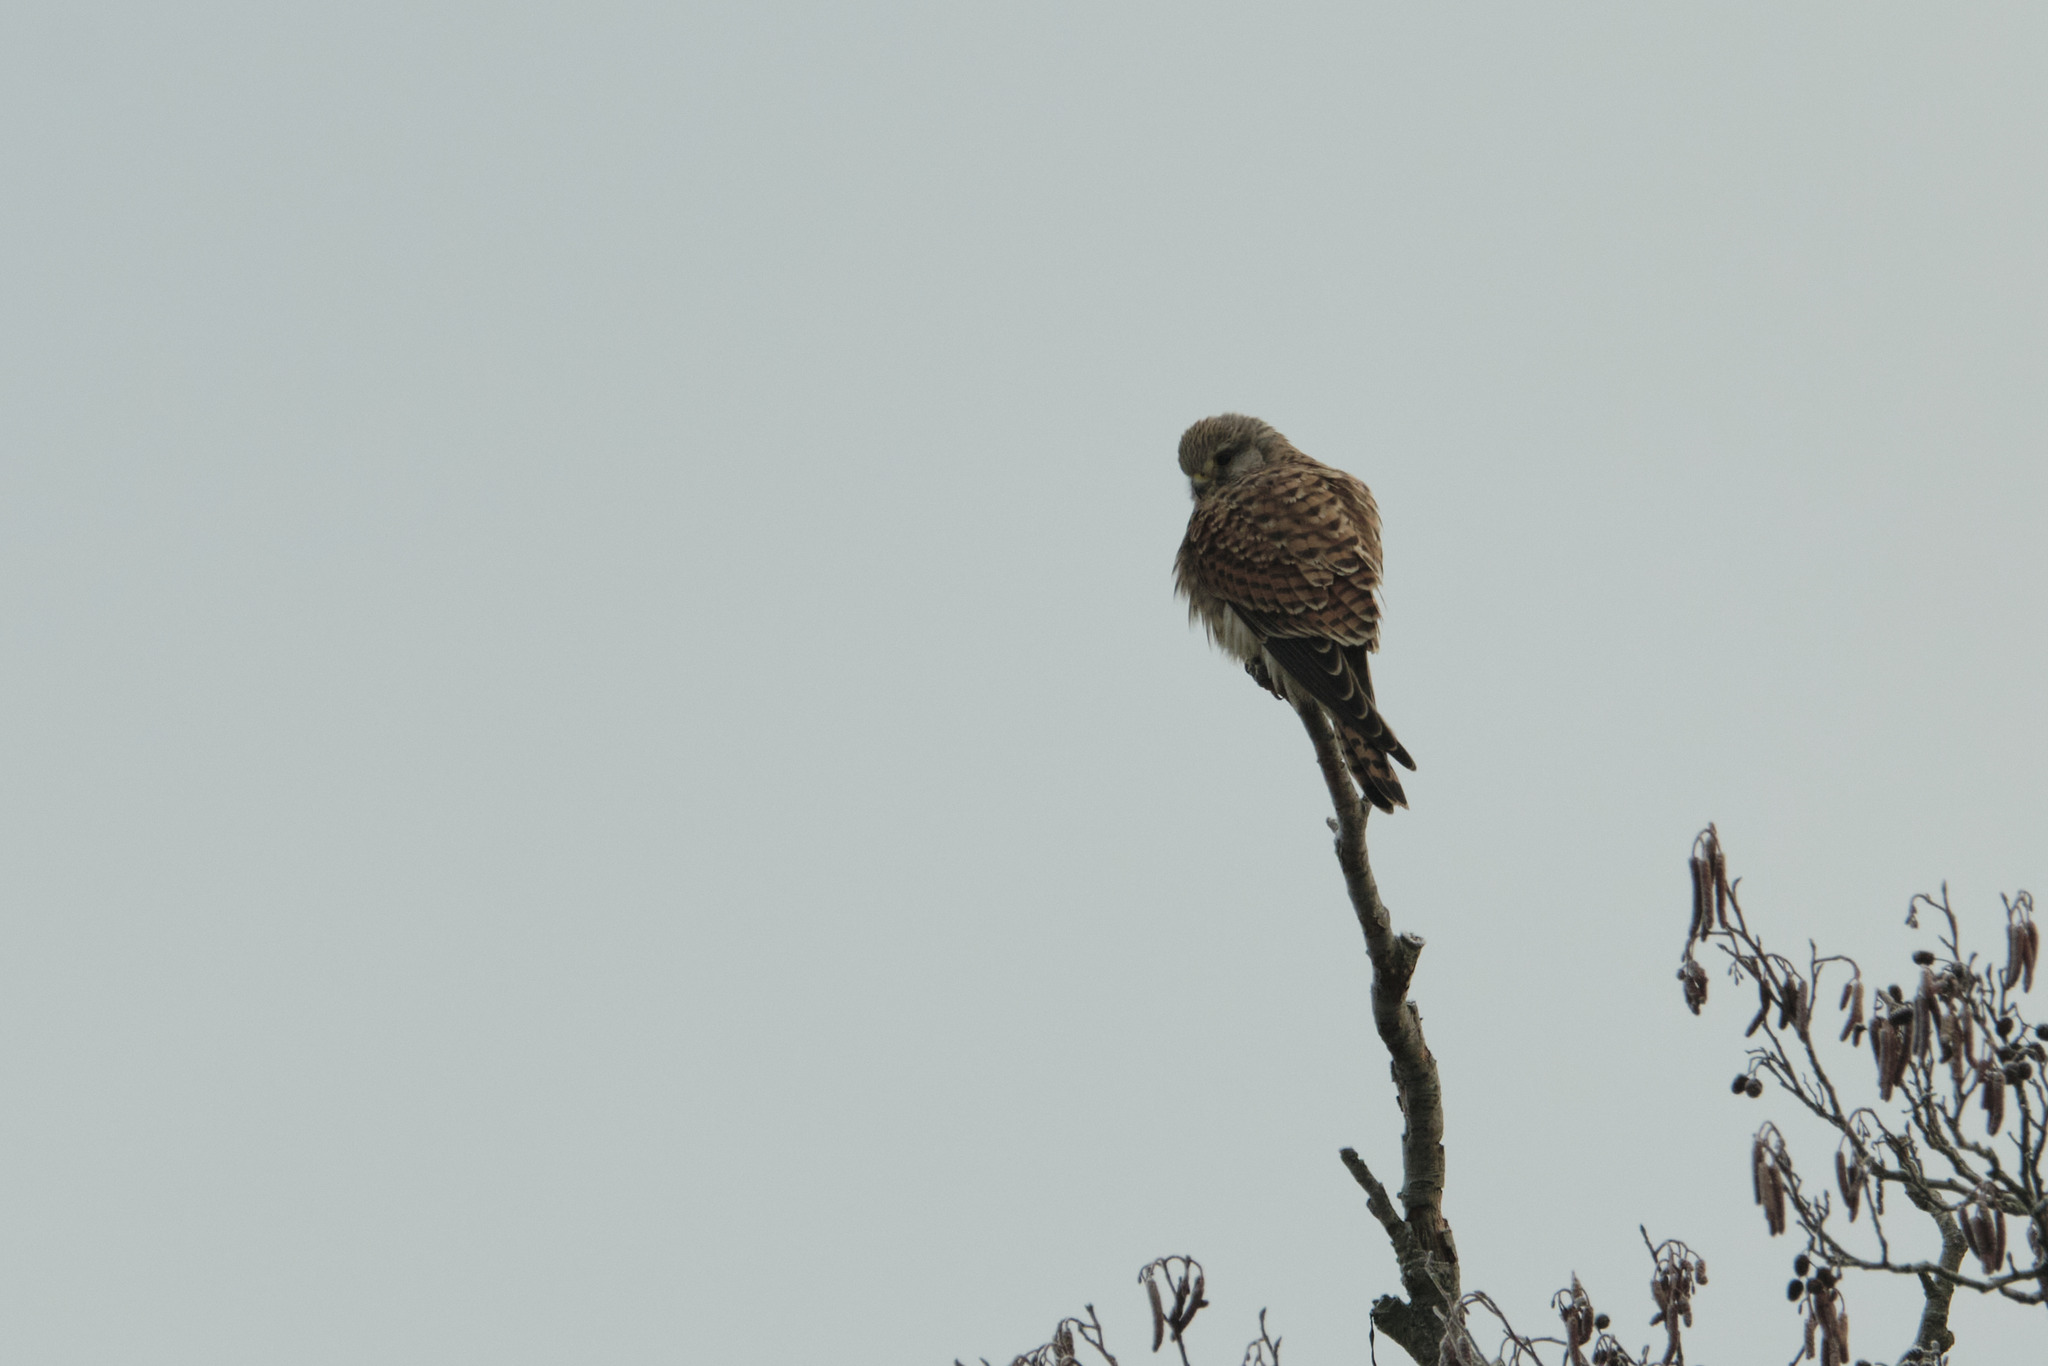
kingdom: Animalia
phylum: Chordata
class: Aves
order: Falconiformes
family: Falconidae
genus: Falco
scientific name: Falco tinnunculus
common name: Common kestrel
